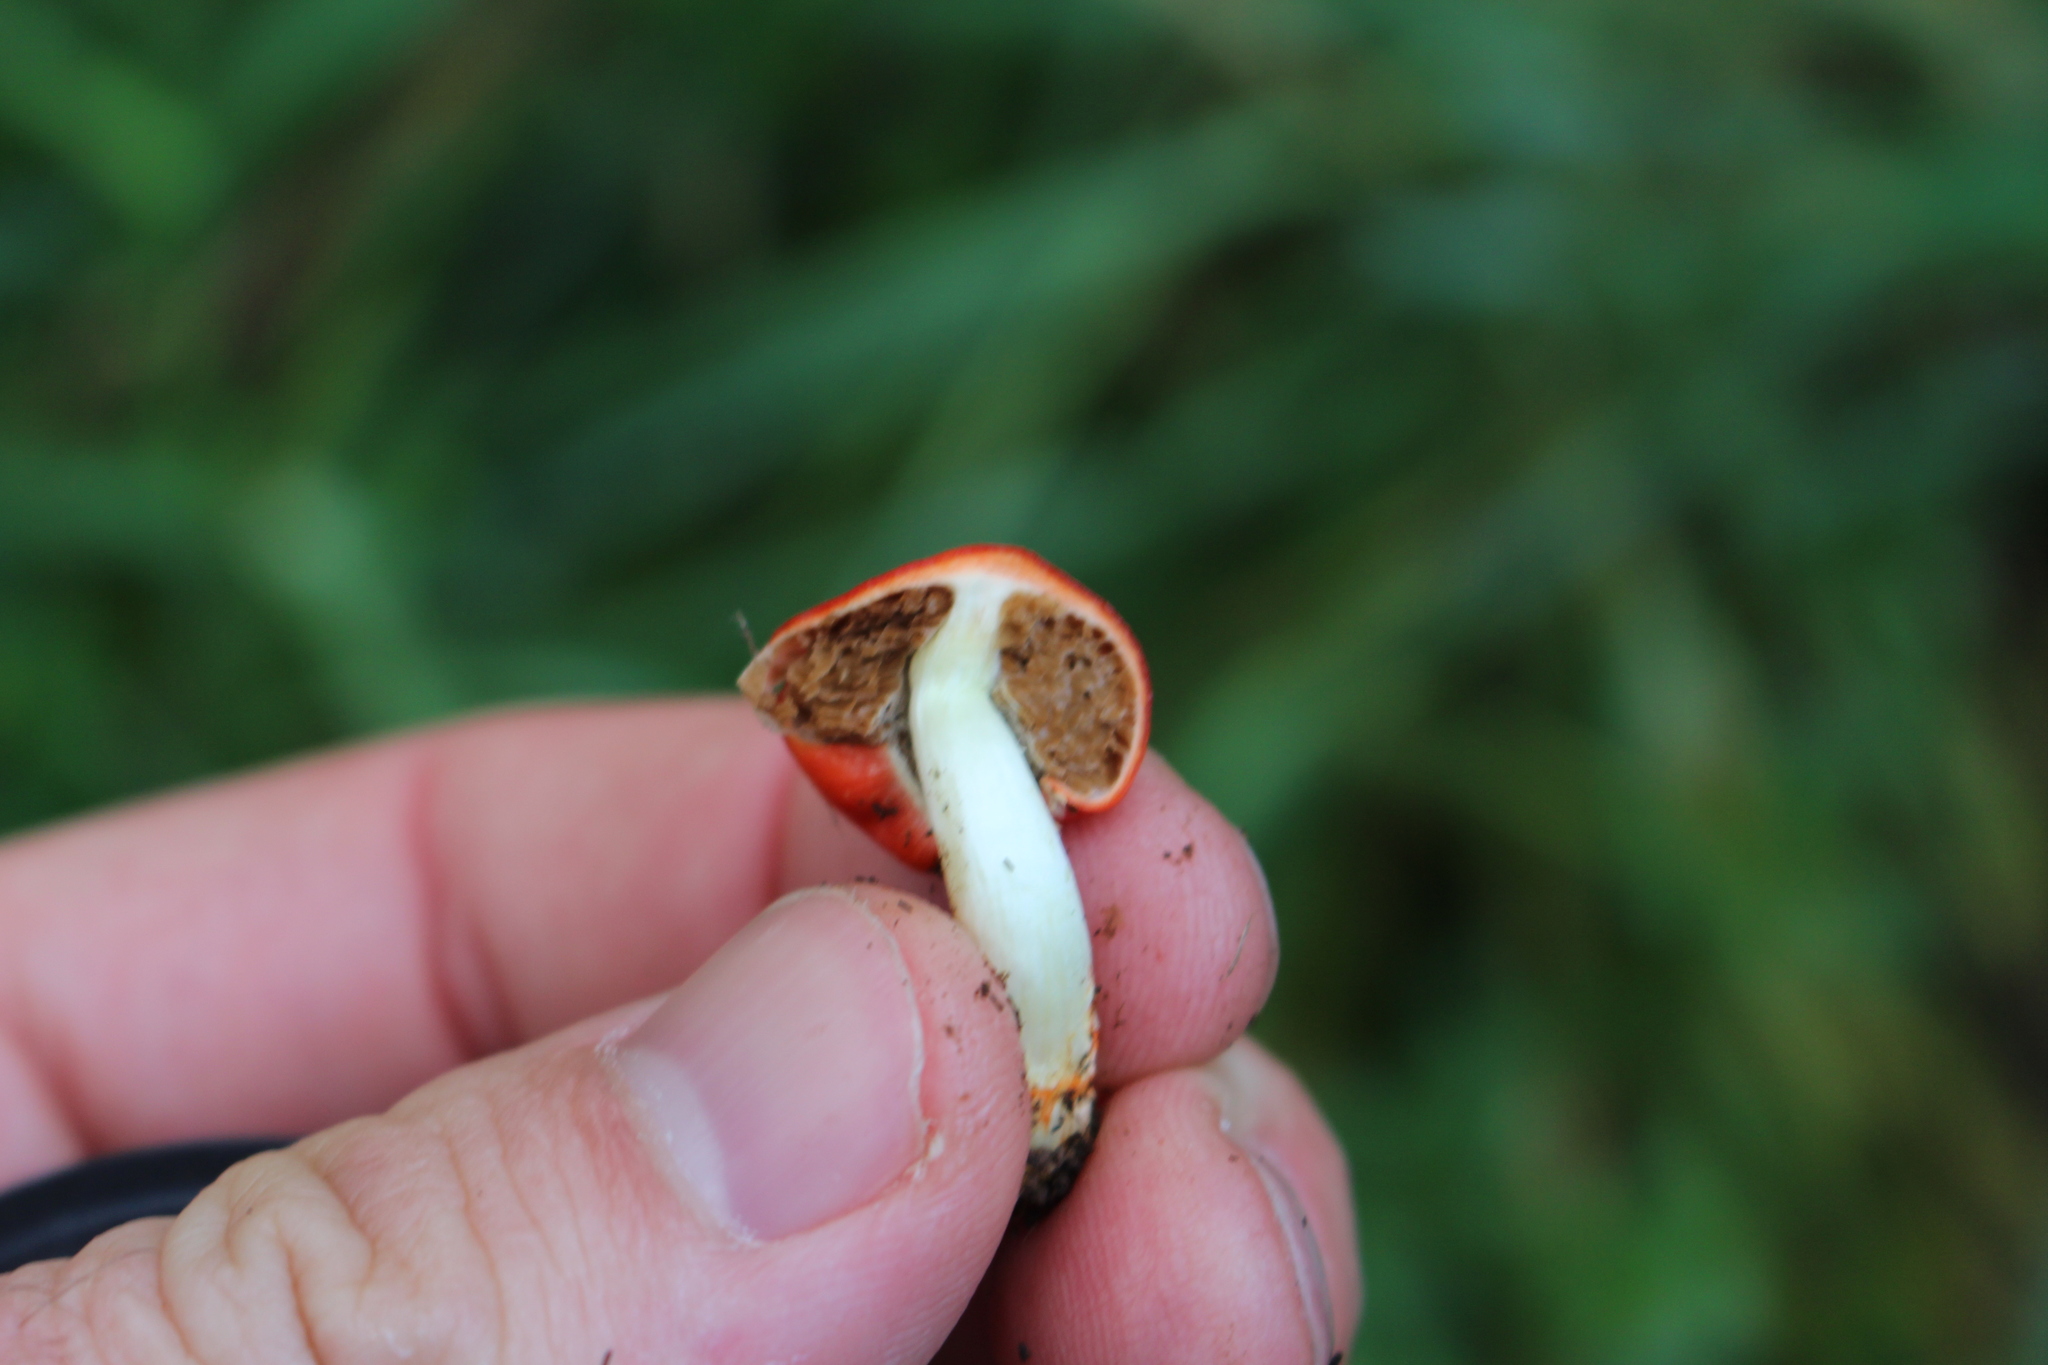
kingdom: Fungi
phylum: Basidiomycota
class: Agaricomycetes
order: Agaricales
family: Strophariaceae
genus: Leratiomyces
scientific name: Leratiomyces erythrocephalus
